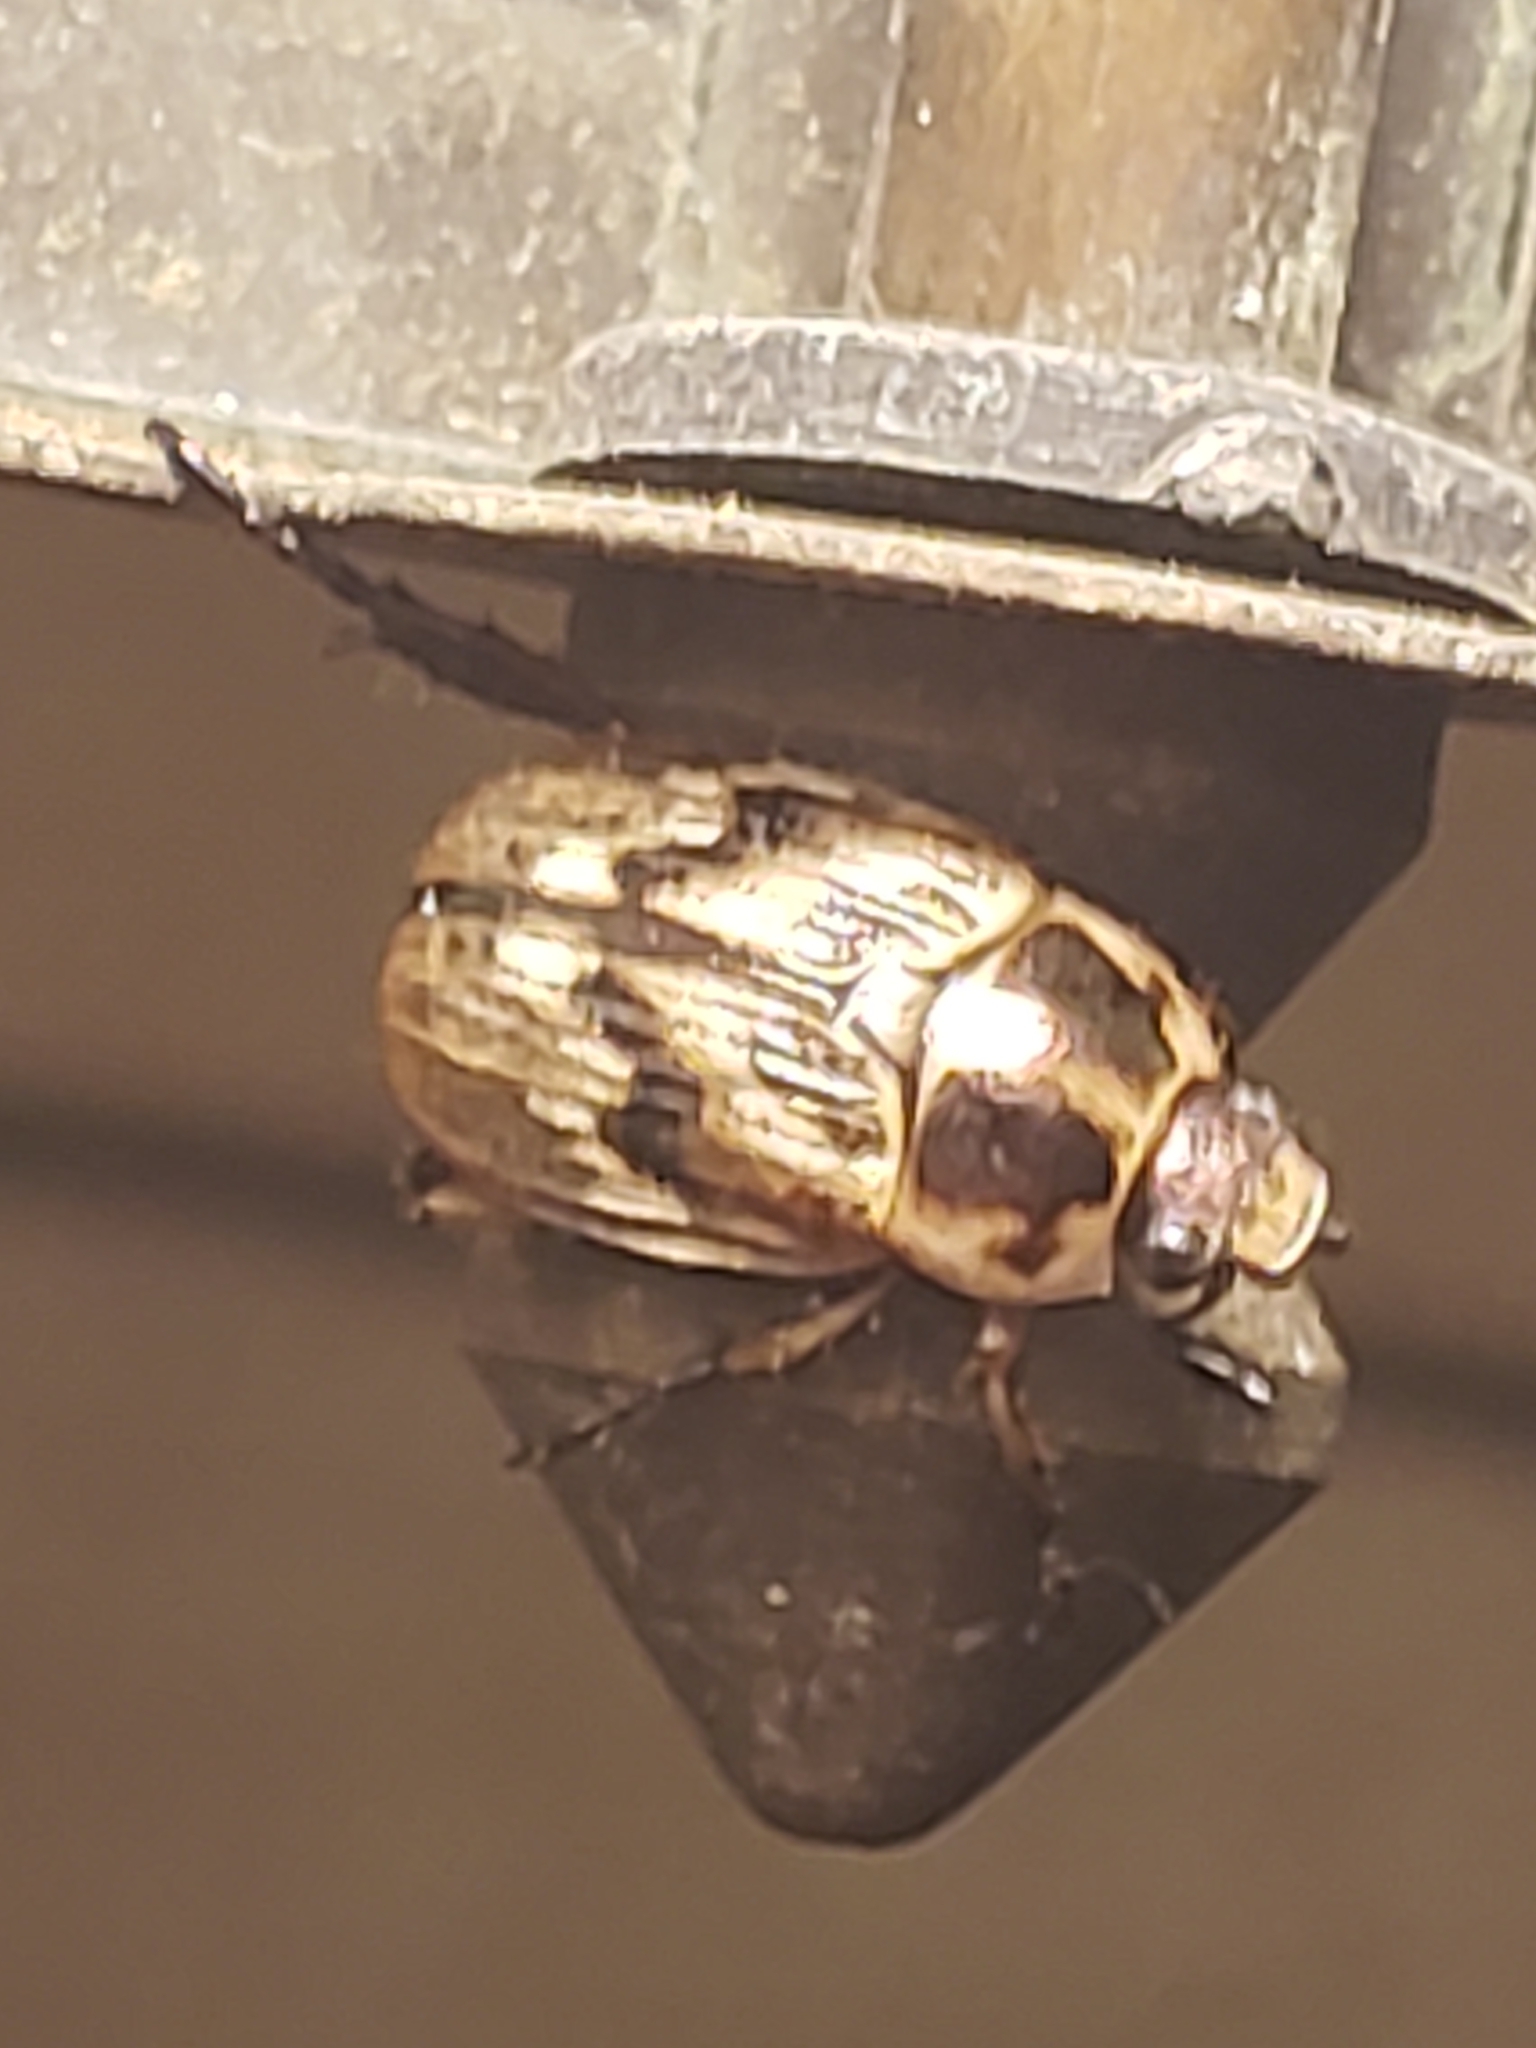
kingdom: Animalia
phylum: Arthropoda
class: Insecta
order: Coleoptera
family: Scarabaeidae
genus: Exomala
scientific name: Exomala orientalis
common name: Oriental beetle
